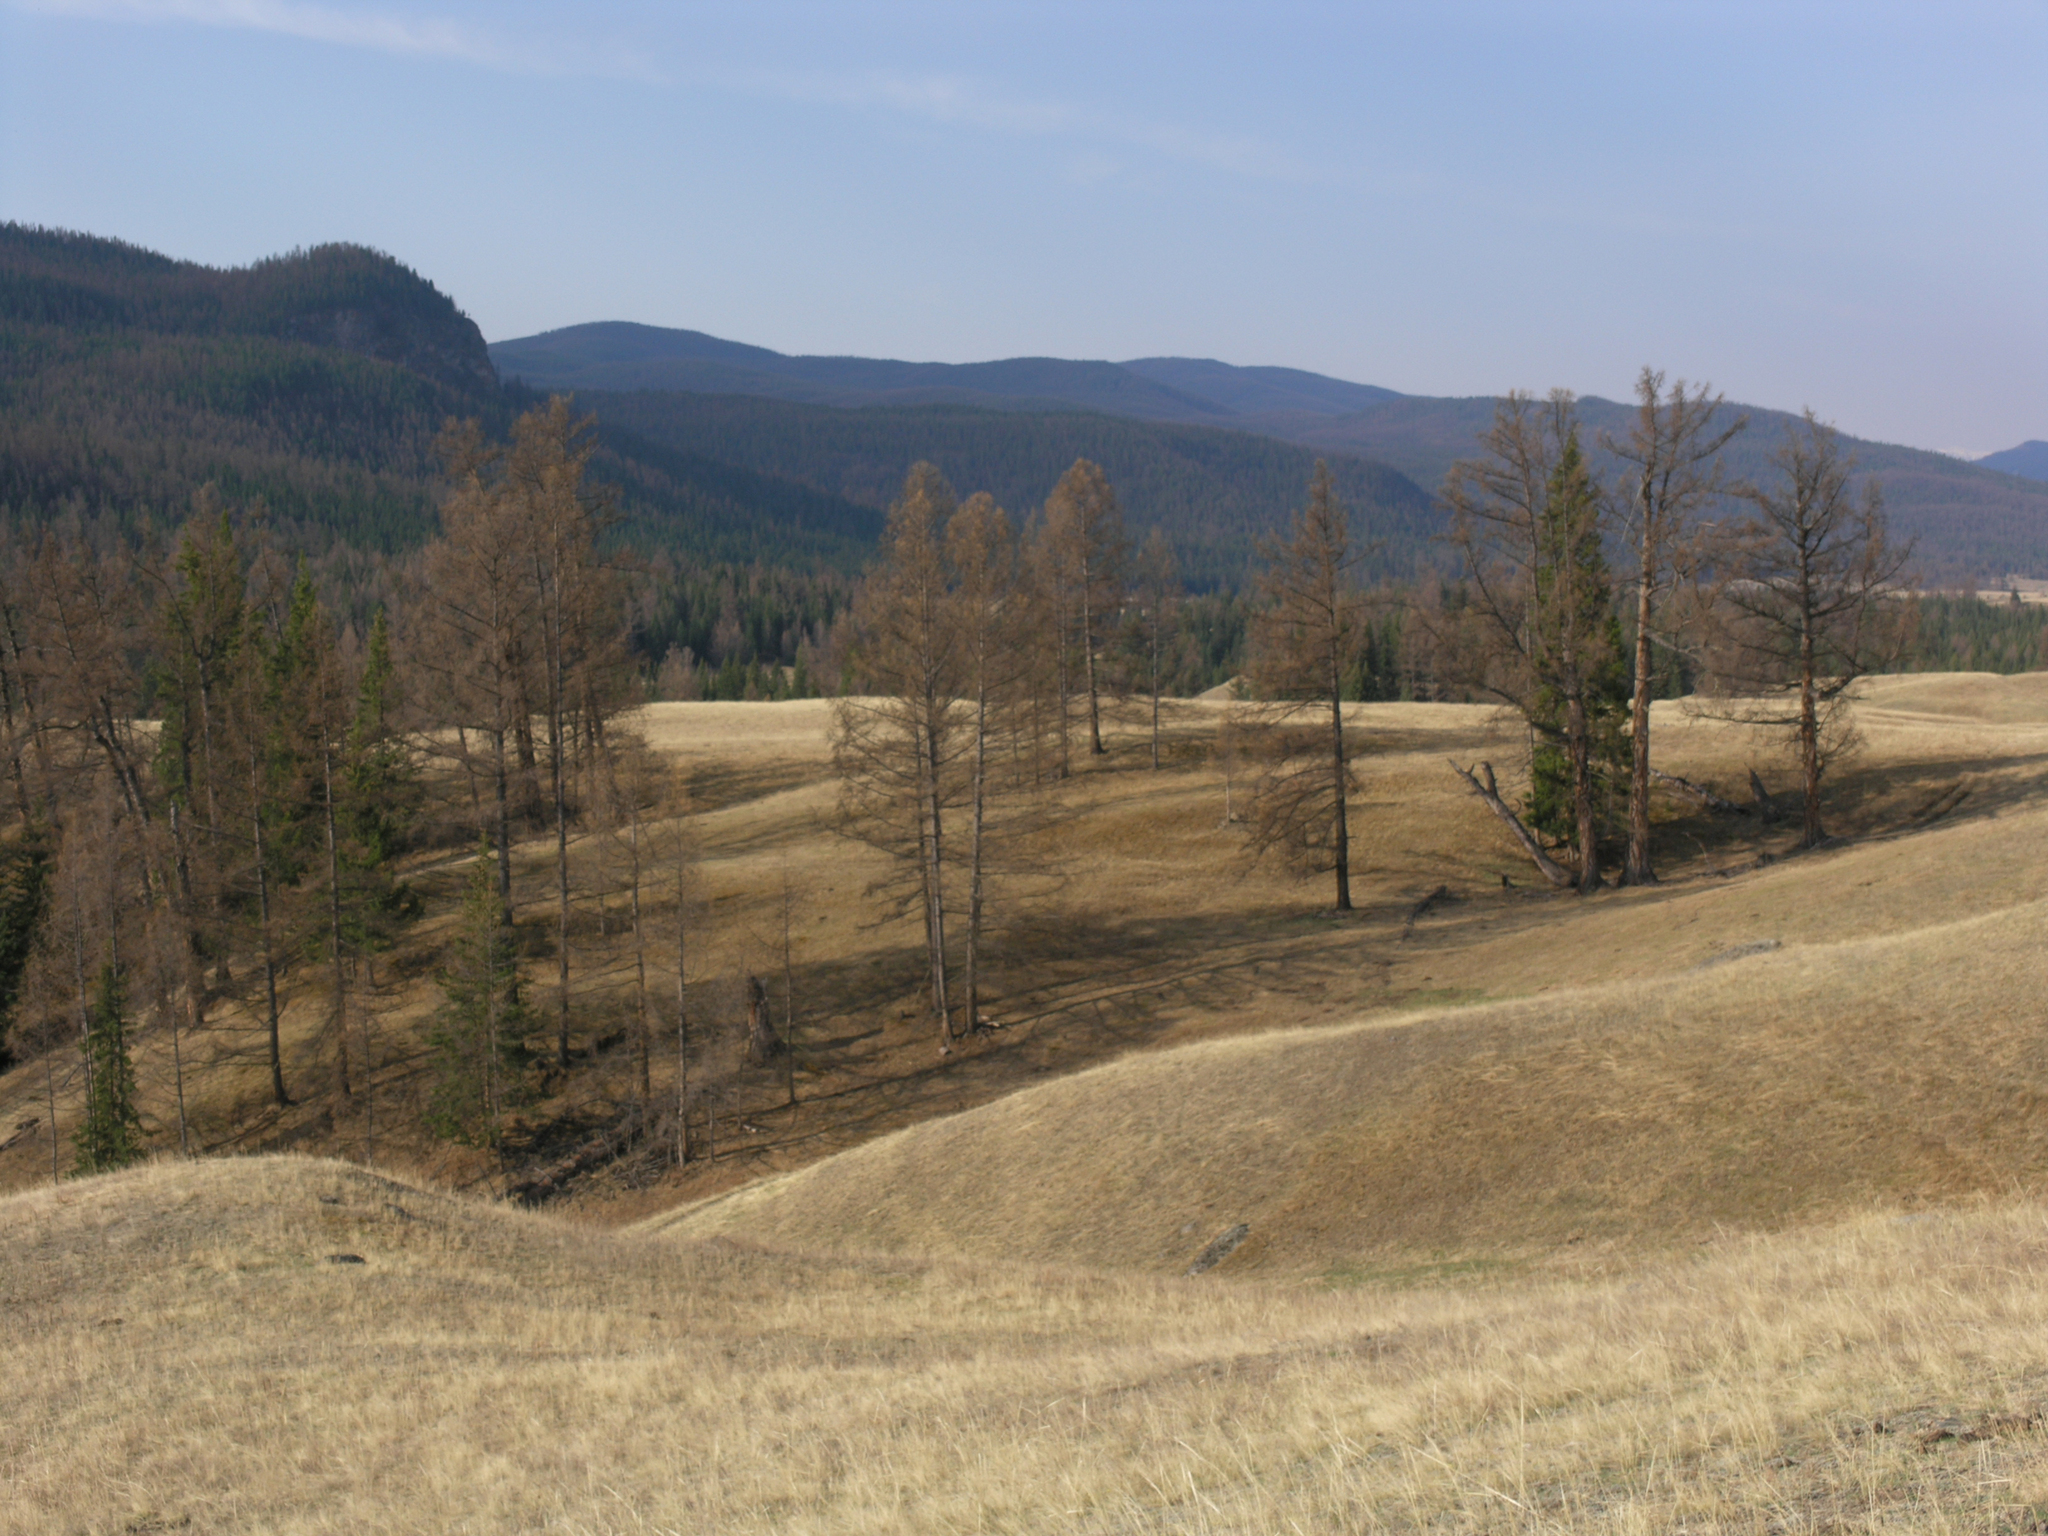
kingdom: Plantae
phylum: Tracheophyta
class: Pinopsida
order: Pinales
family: Pinaceae
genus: Larix
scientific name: Larix sibirica
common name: Siberian larch
